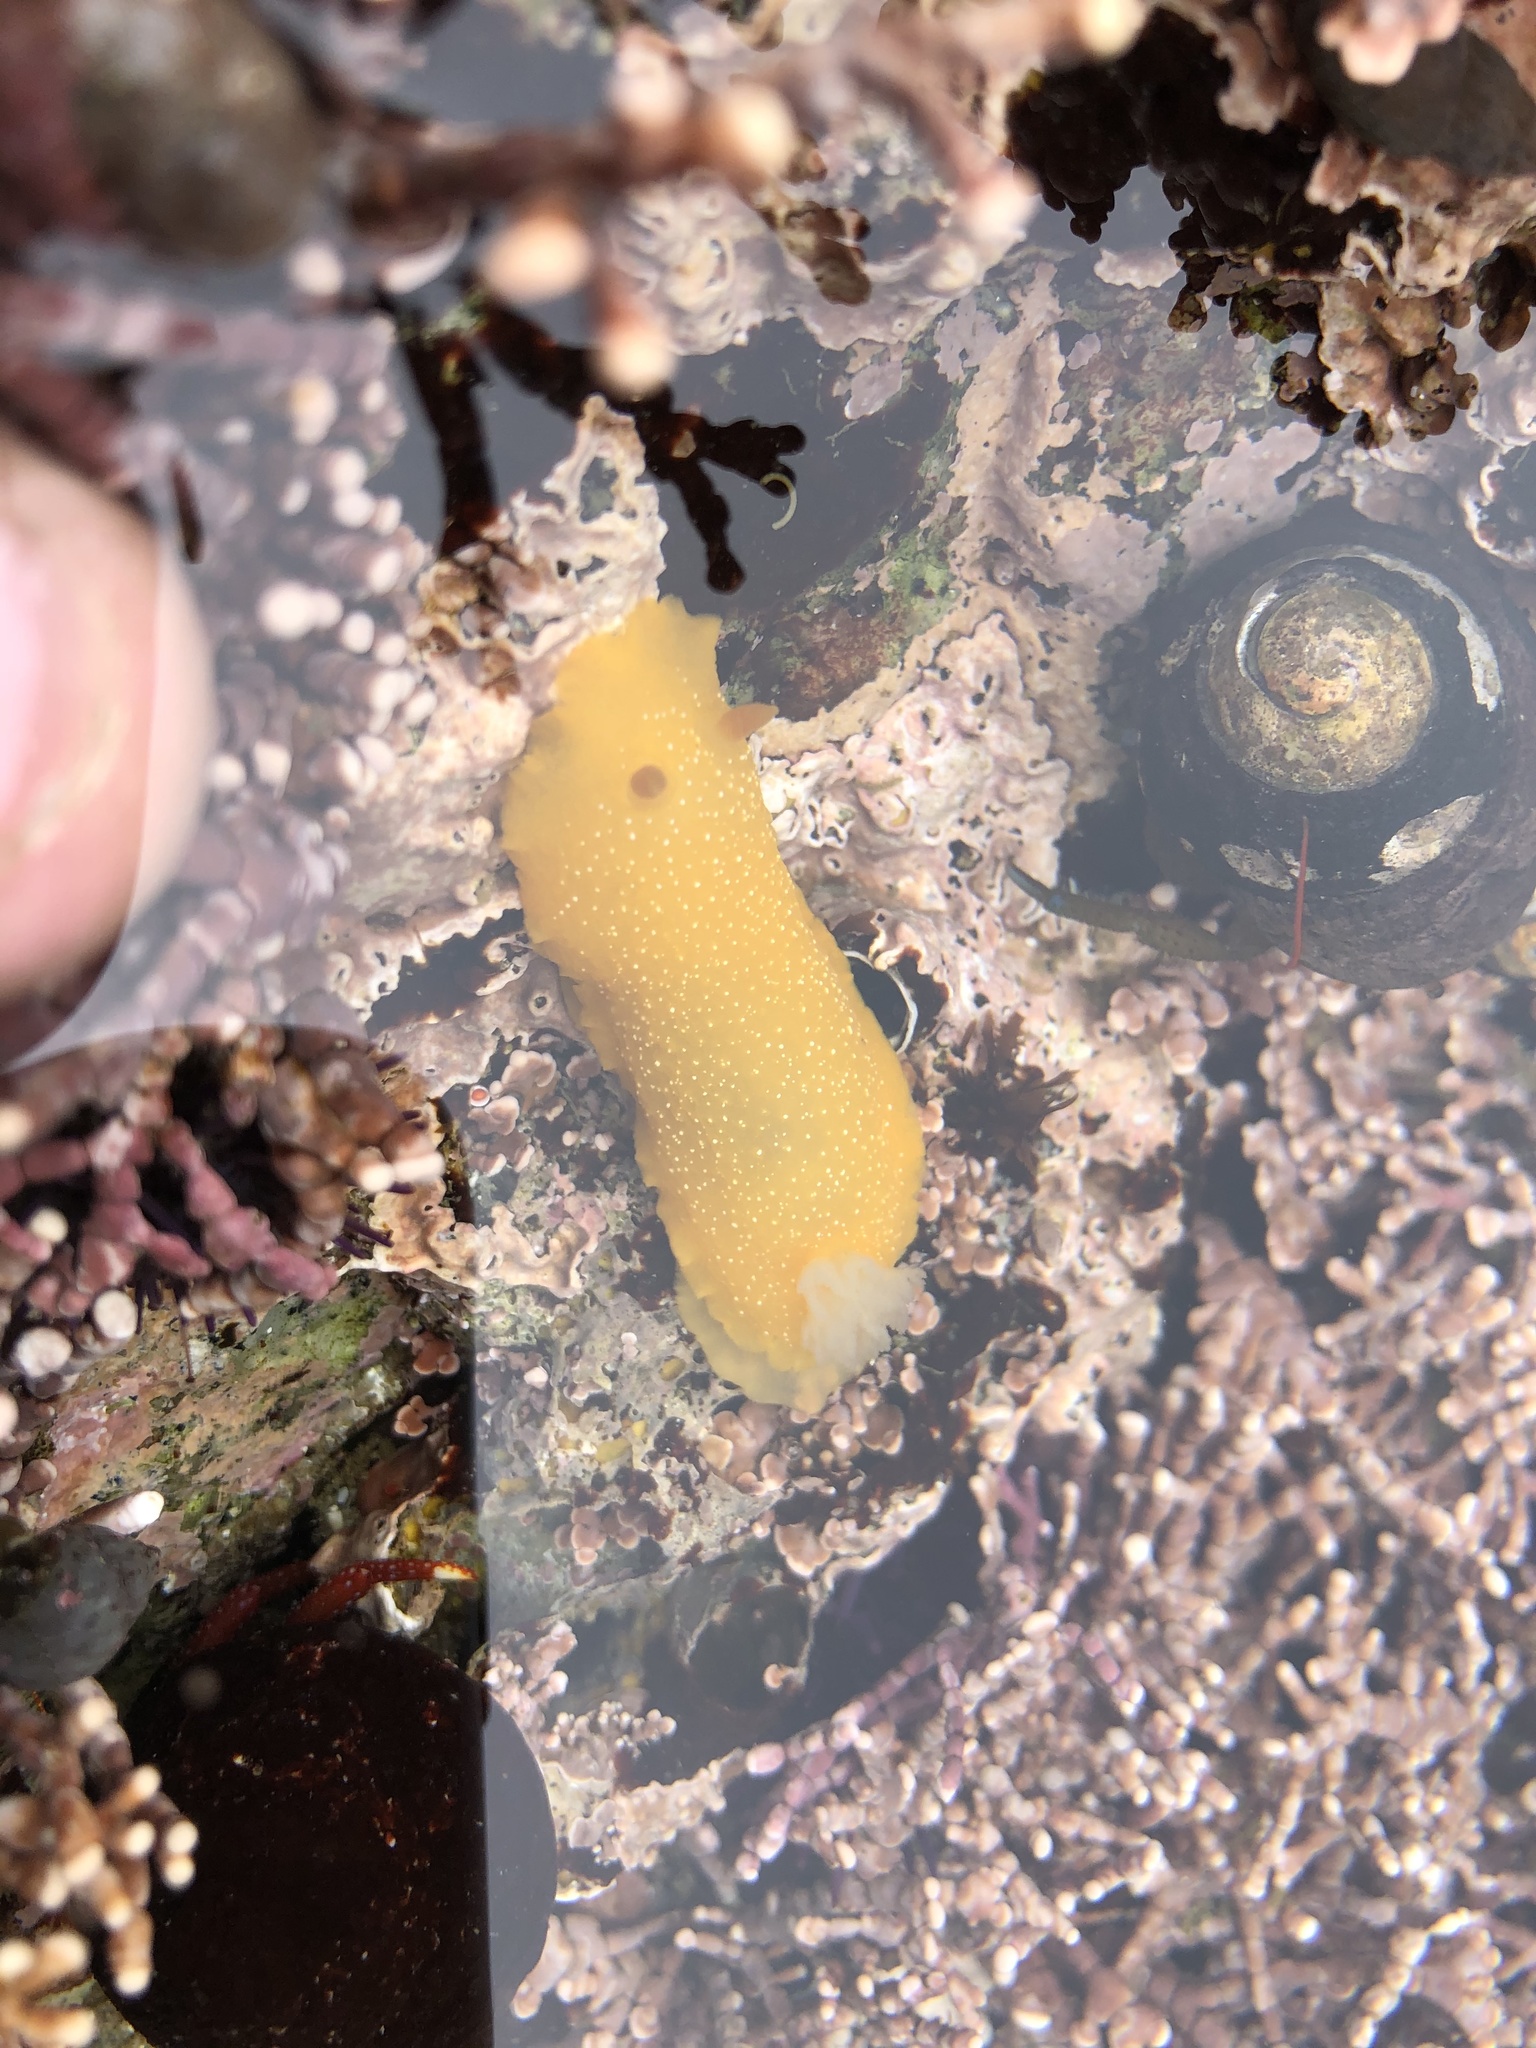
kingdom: Animalia
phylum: Mollusca
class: Gastropoda
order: Nudibranchia
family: Dendrodorididae
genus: Doriopsilla
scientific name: Doriopsilla fulva
